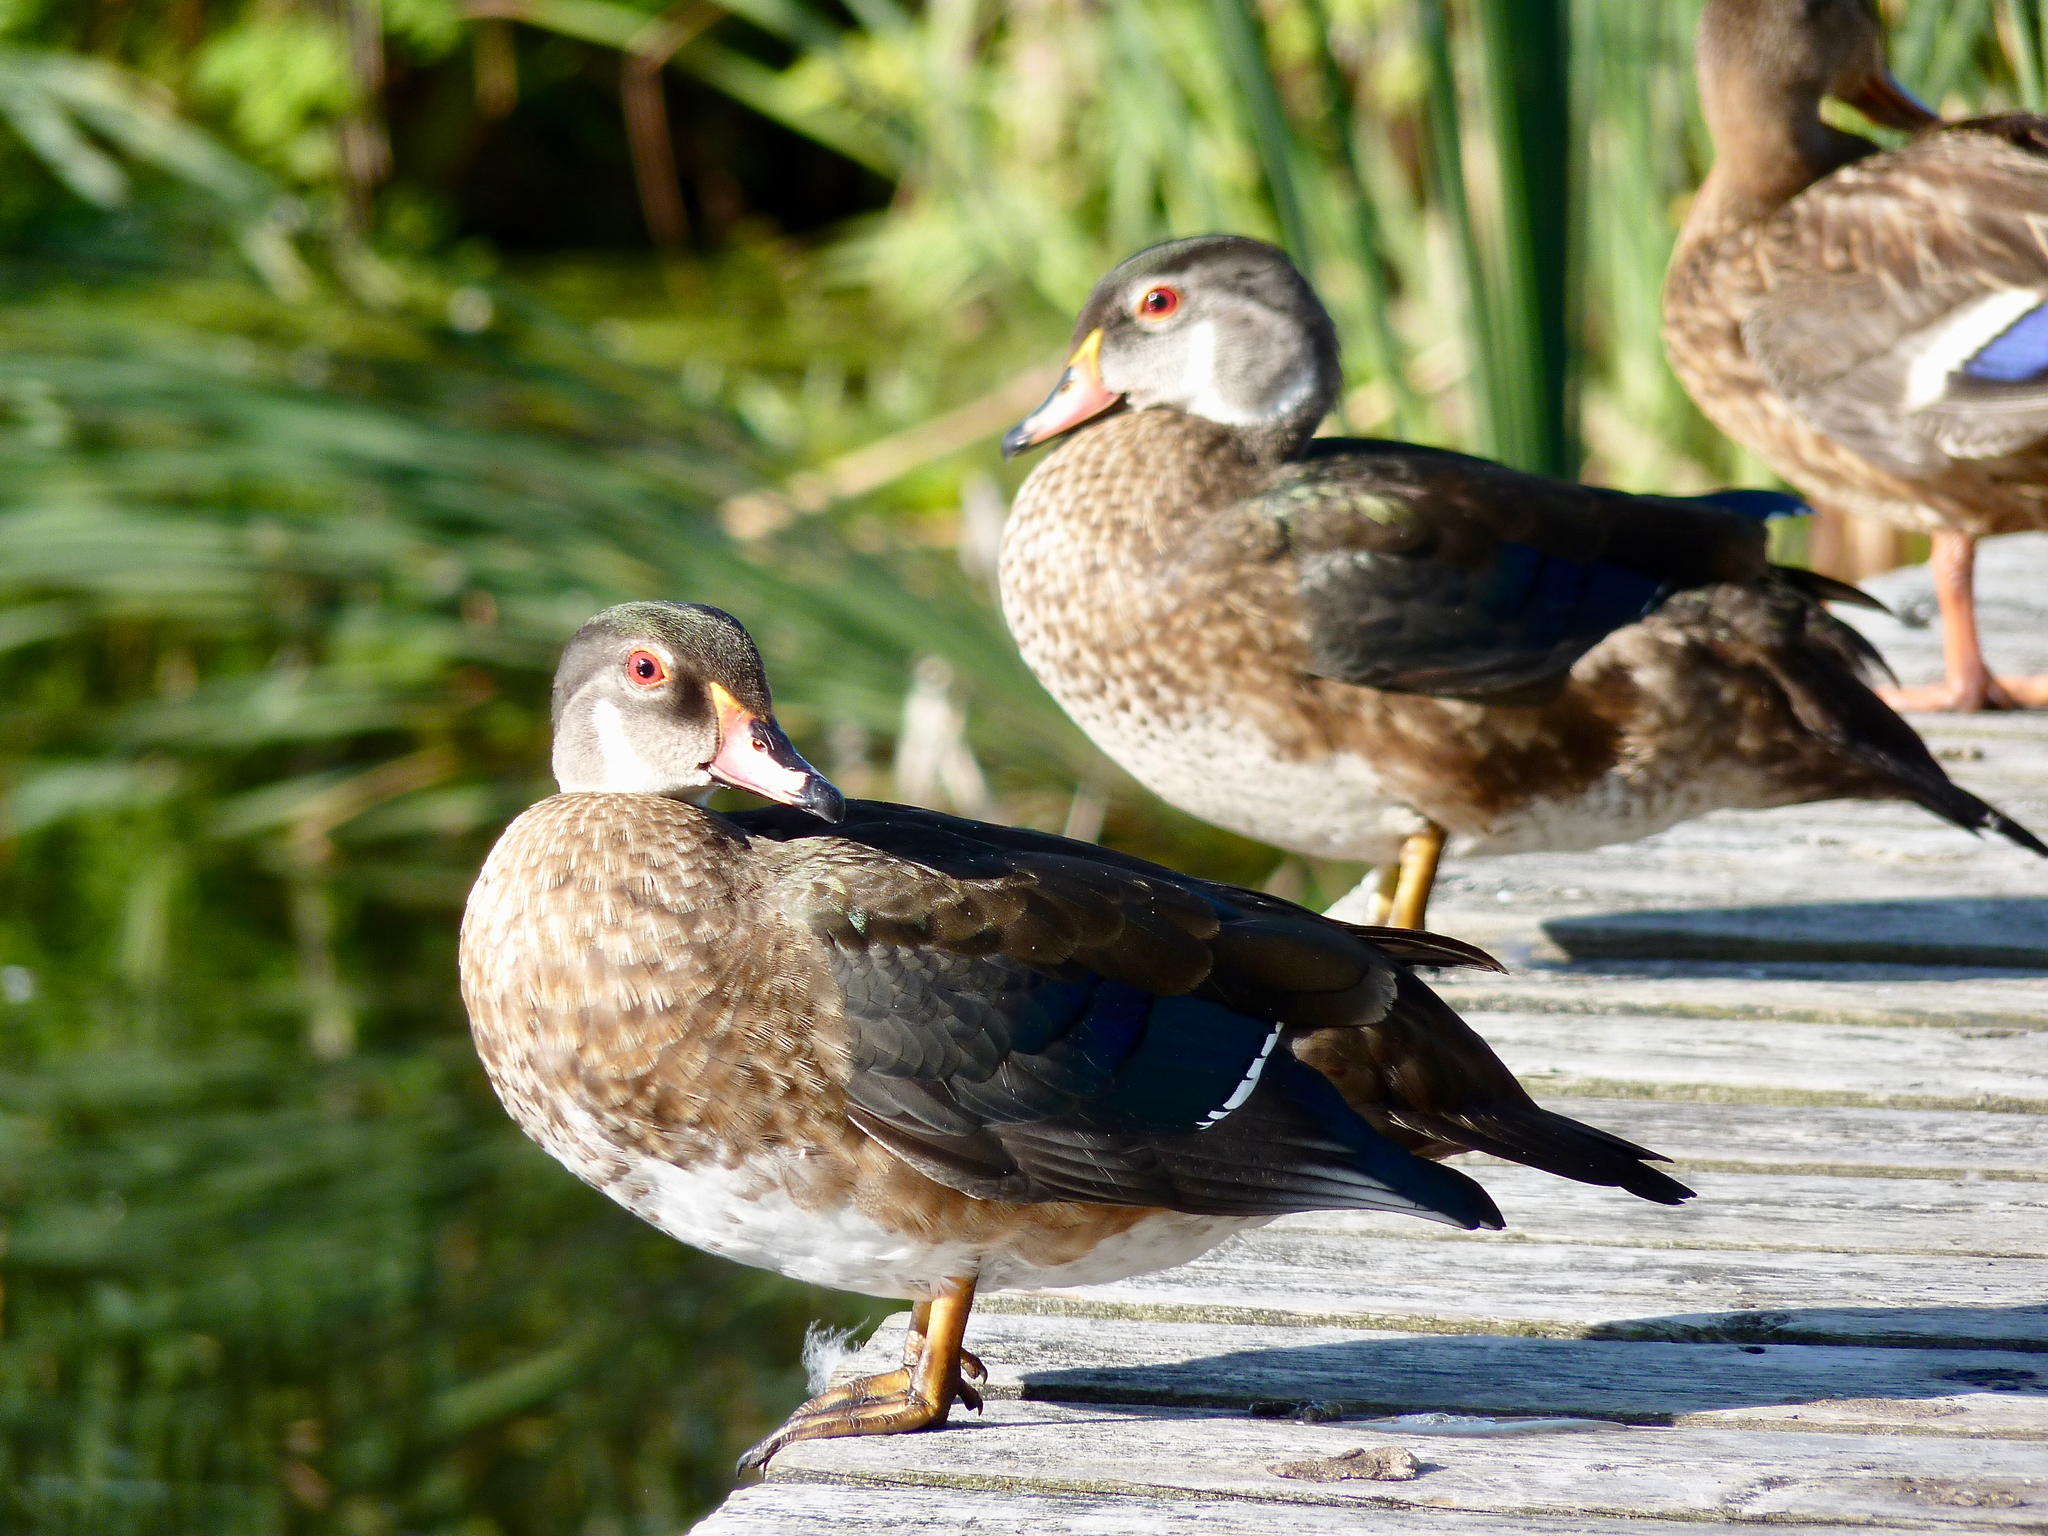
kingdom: Animalia
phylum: Chordata
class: Aves
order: Anseriformes
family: Anatidae
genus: Aix
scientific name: Aix sponsa
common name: Wood duck
